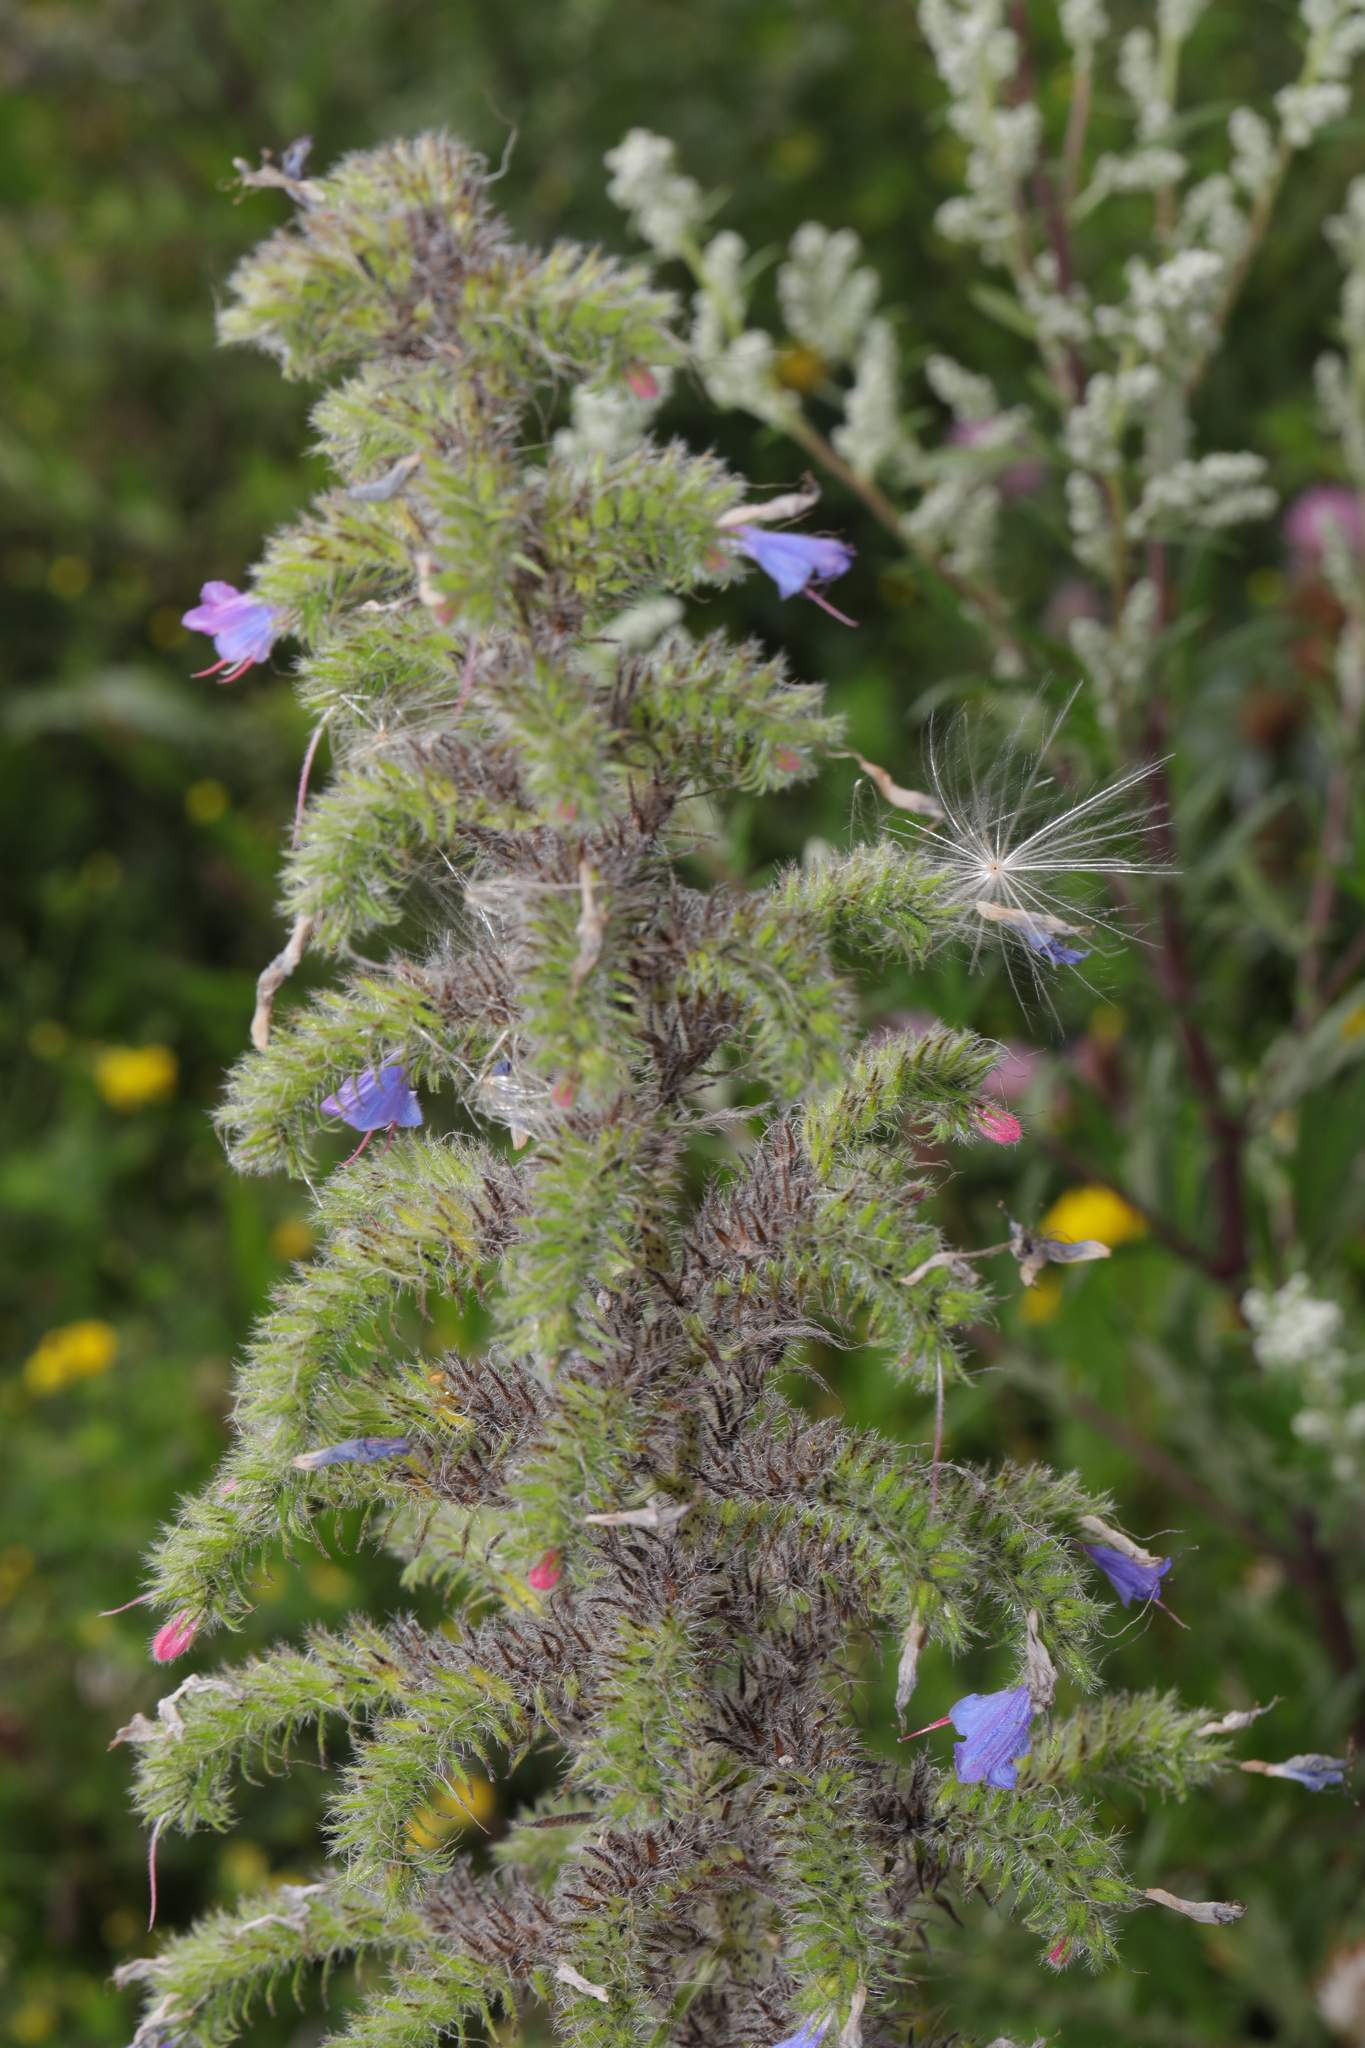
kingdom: Plantae
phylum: Tracheophyta
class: Magnoliopsida
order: Boraginales
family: Boraginaceae
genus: Echium
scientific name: Echium vulgare
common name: Common viper's bugloss
